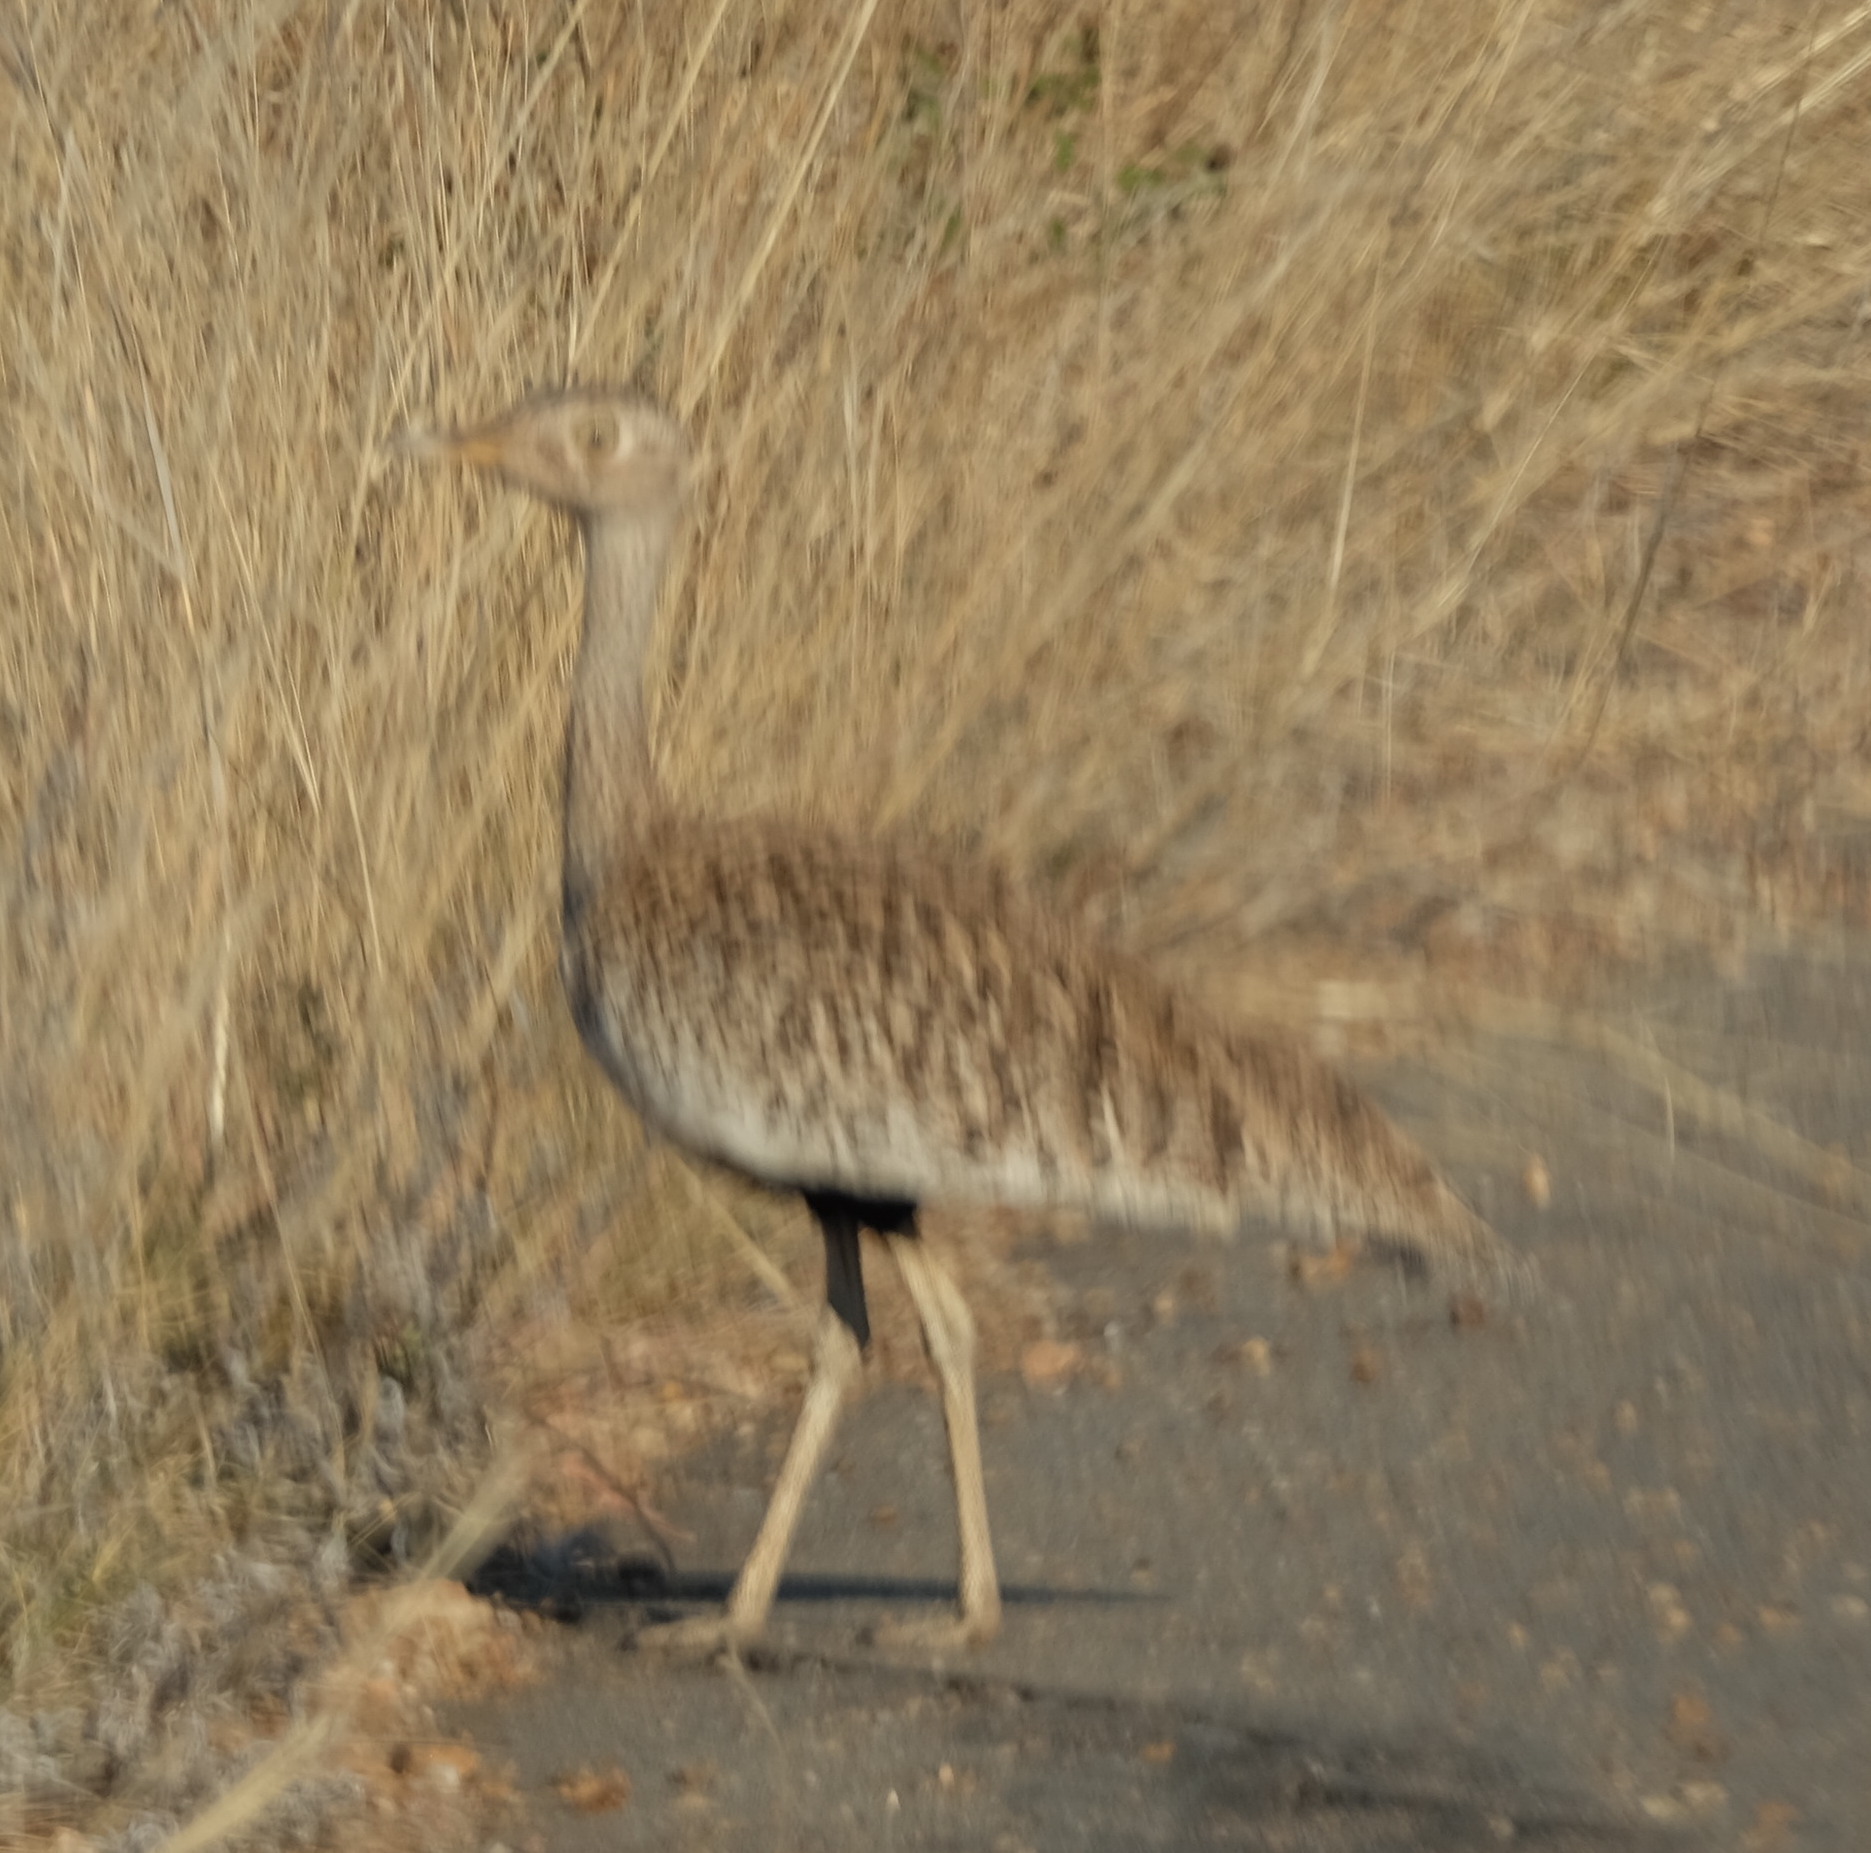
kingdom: Animalia
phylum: Chordata
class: Aves
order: Otidiformes
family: Otididae
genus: Lophotis
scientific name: Lophotis ruficrista
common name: Red-crested korhaan
